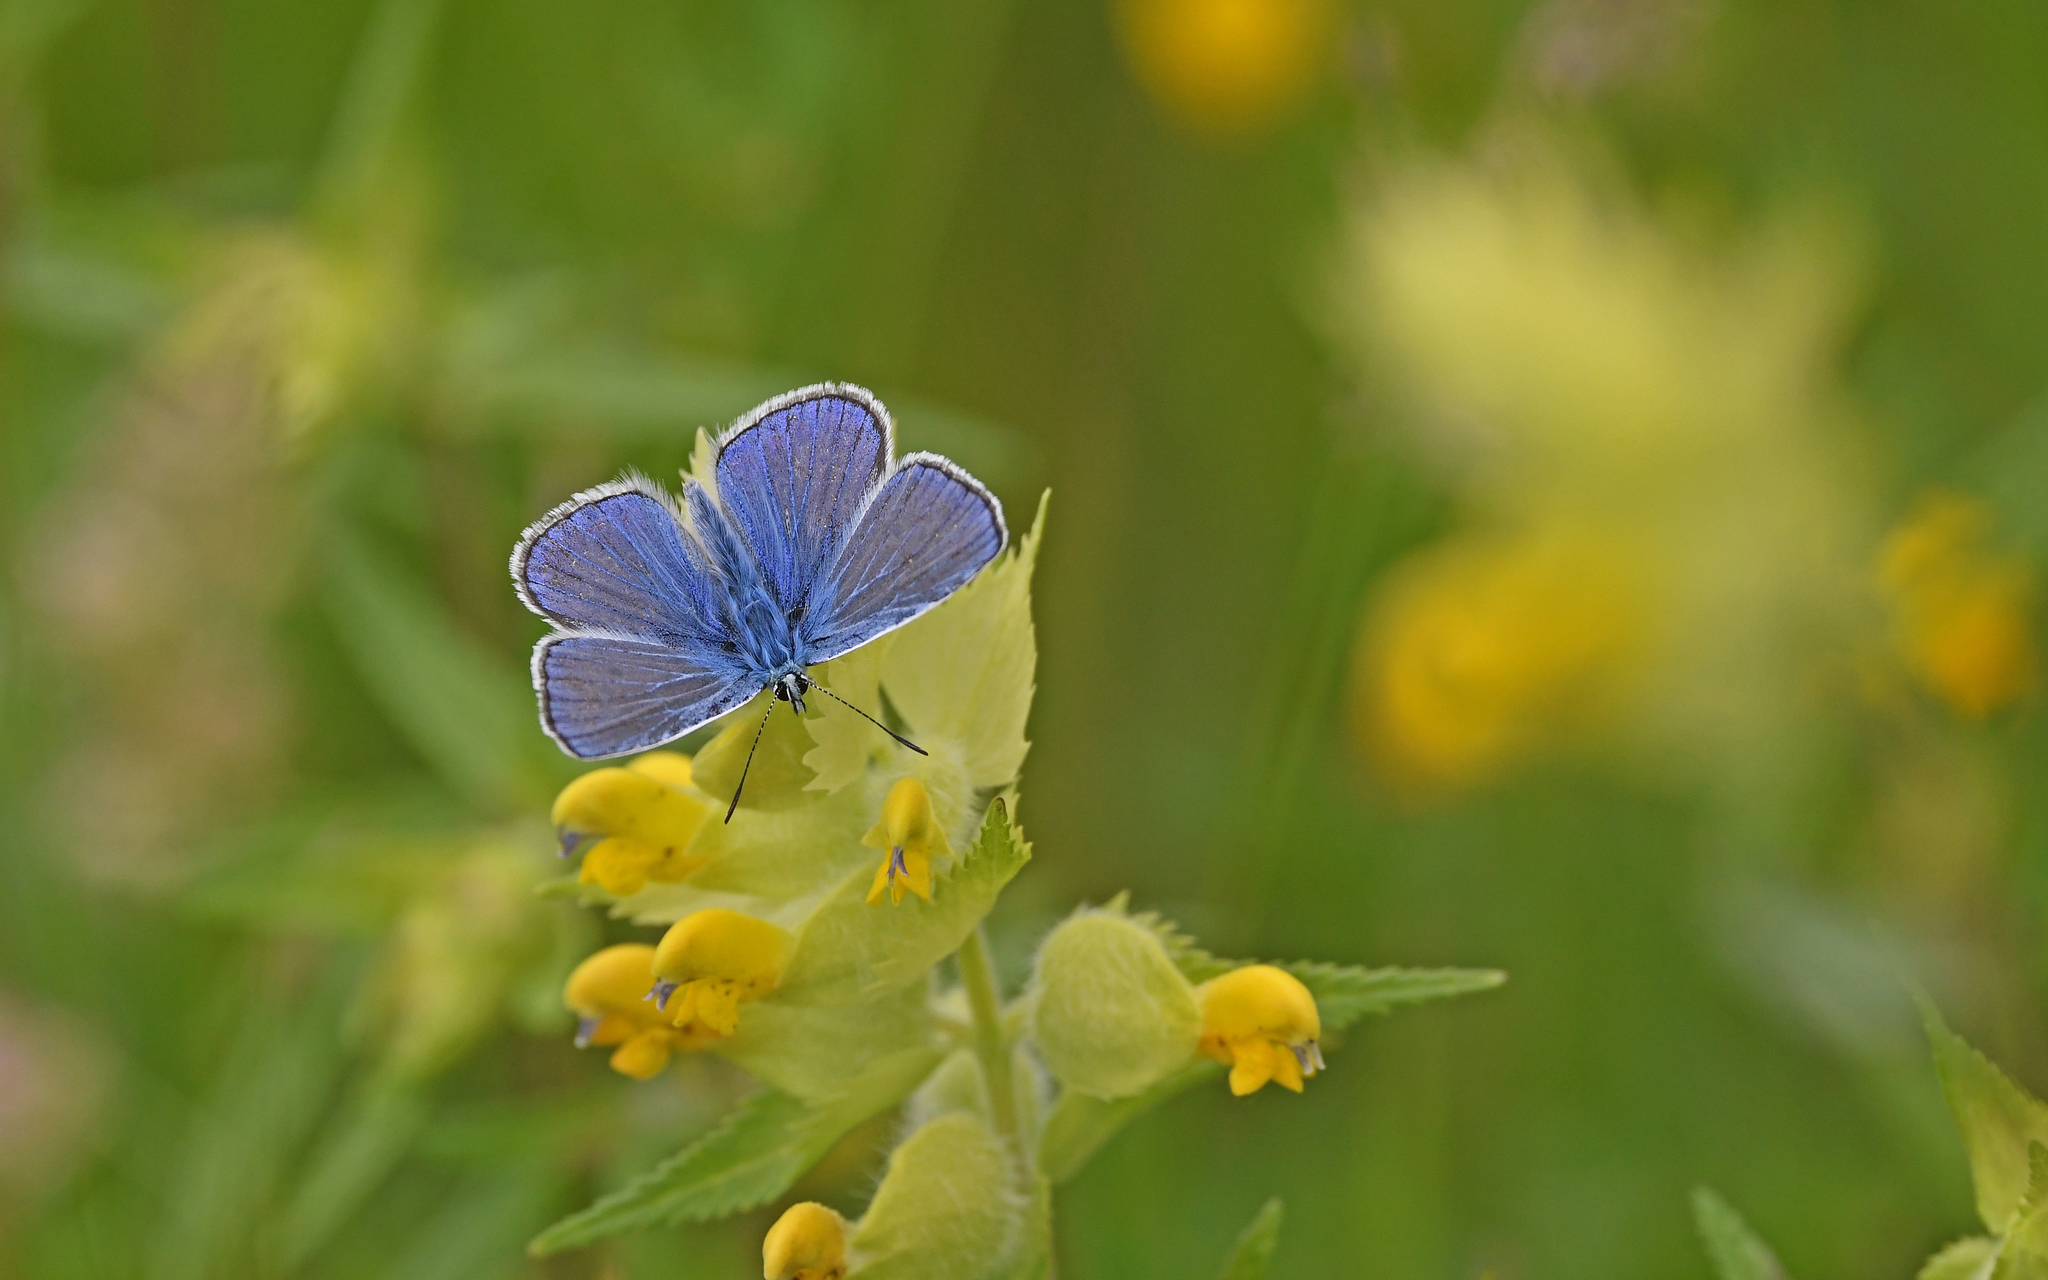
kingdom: Animalia
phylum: Arthropoda
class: Insecta
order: Lepidoptera
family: Lycaenidae
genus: Polyommatus
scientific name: Polyommatus icarus
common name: Common blue
